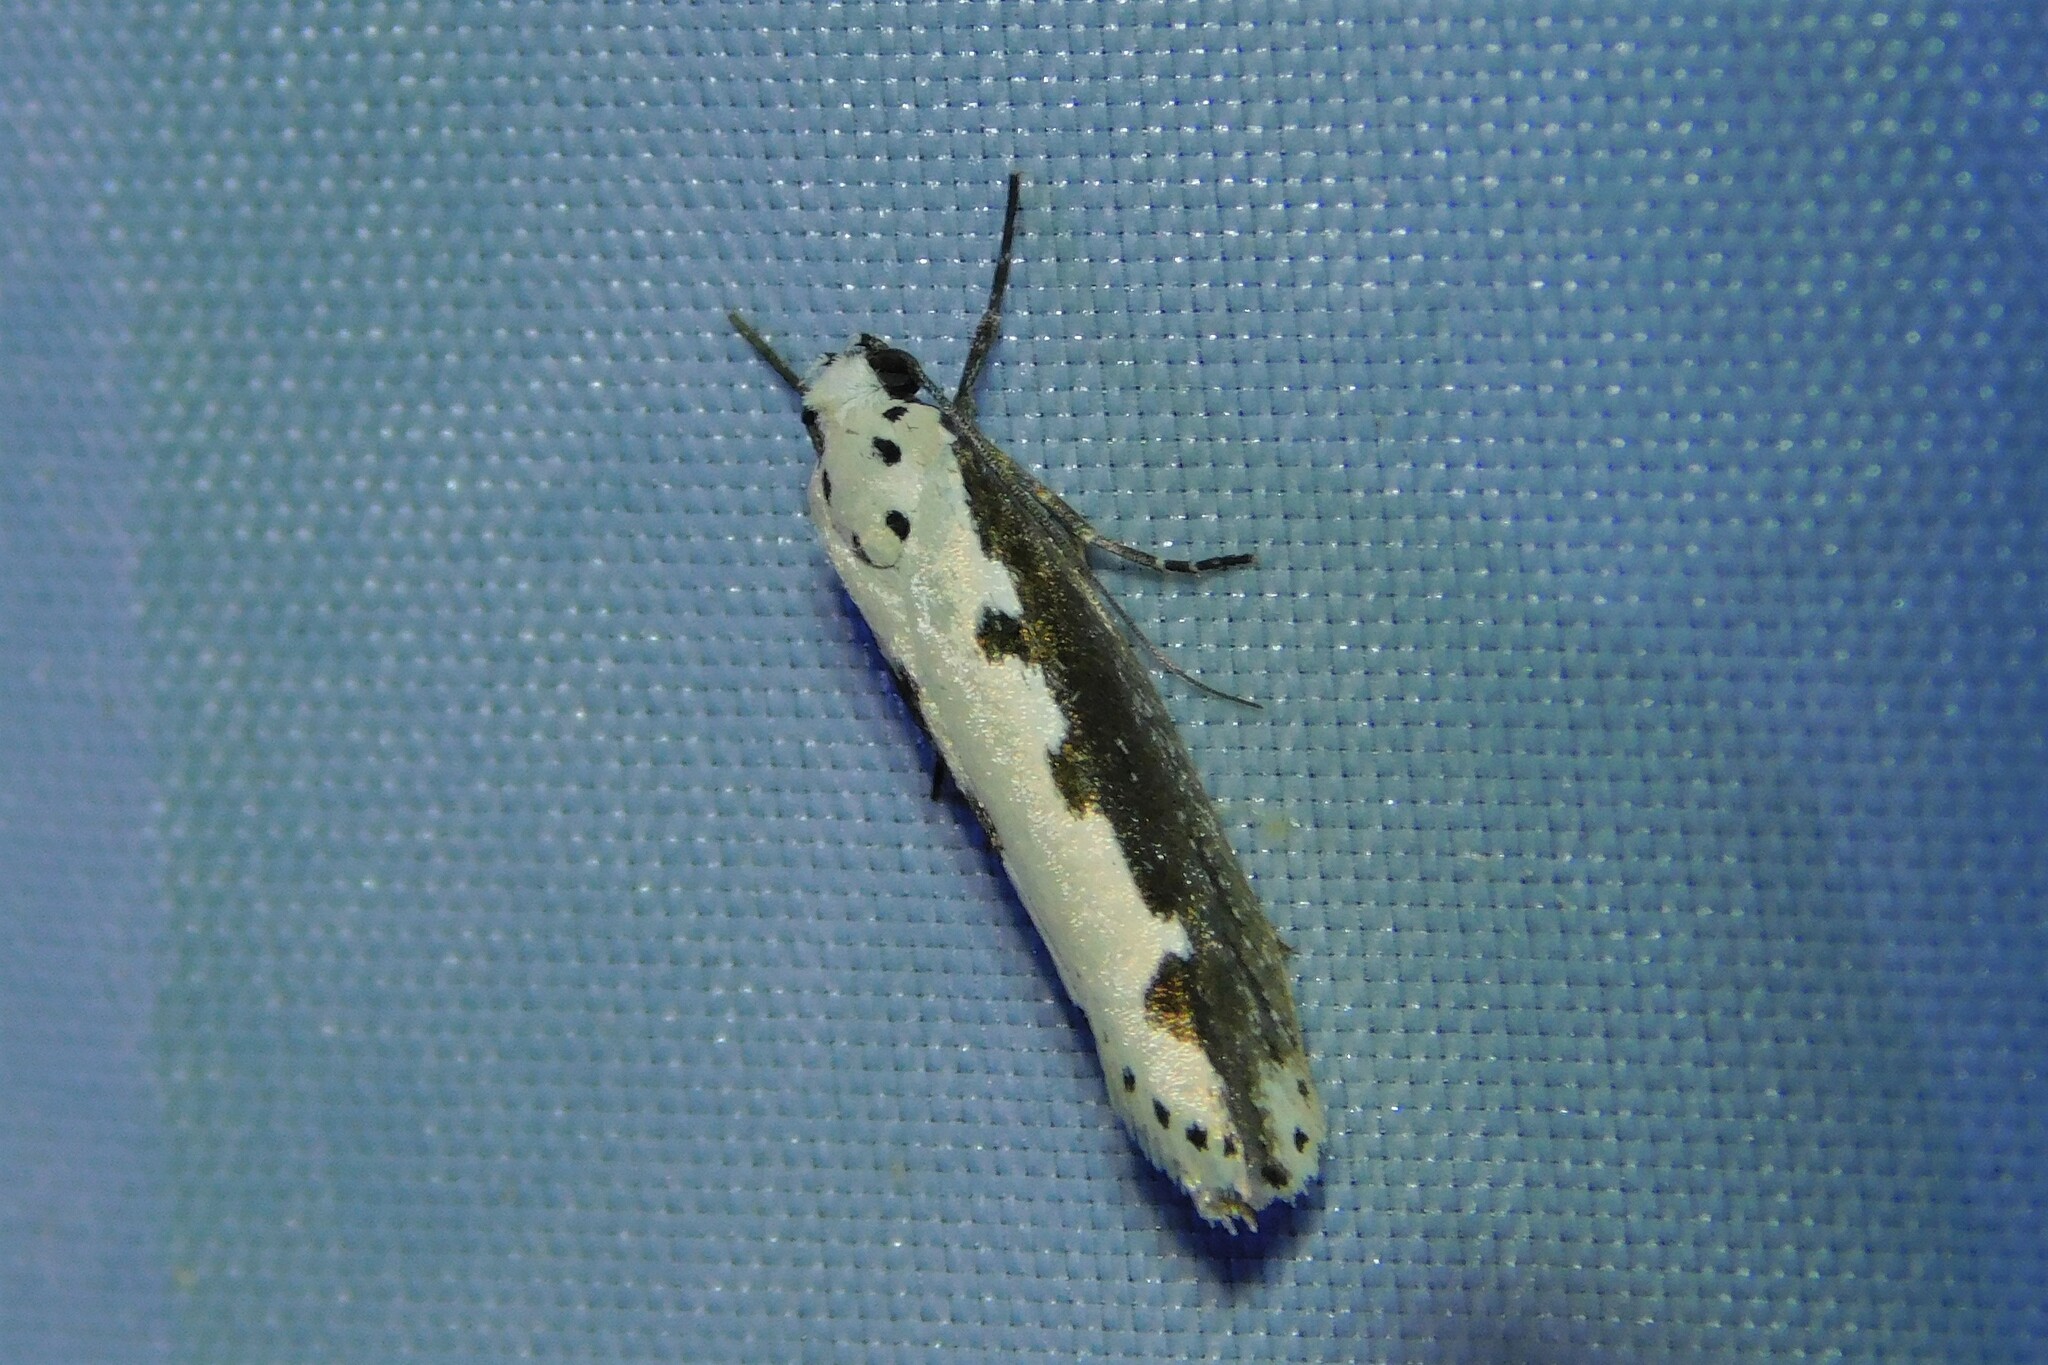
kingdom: Animalia
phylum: Arthropoda
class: Insecta
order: Lepidoptera
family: Ethmiidae
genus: Ethmia
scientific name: Ethmia bipunctella
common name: Bordered ermel
